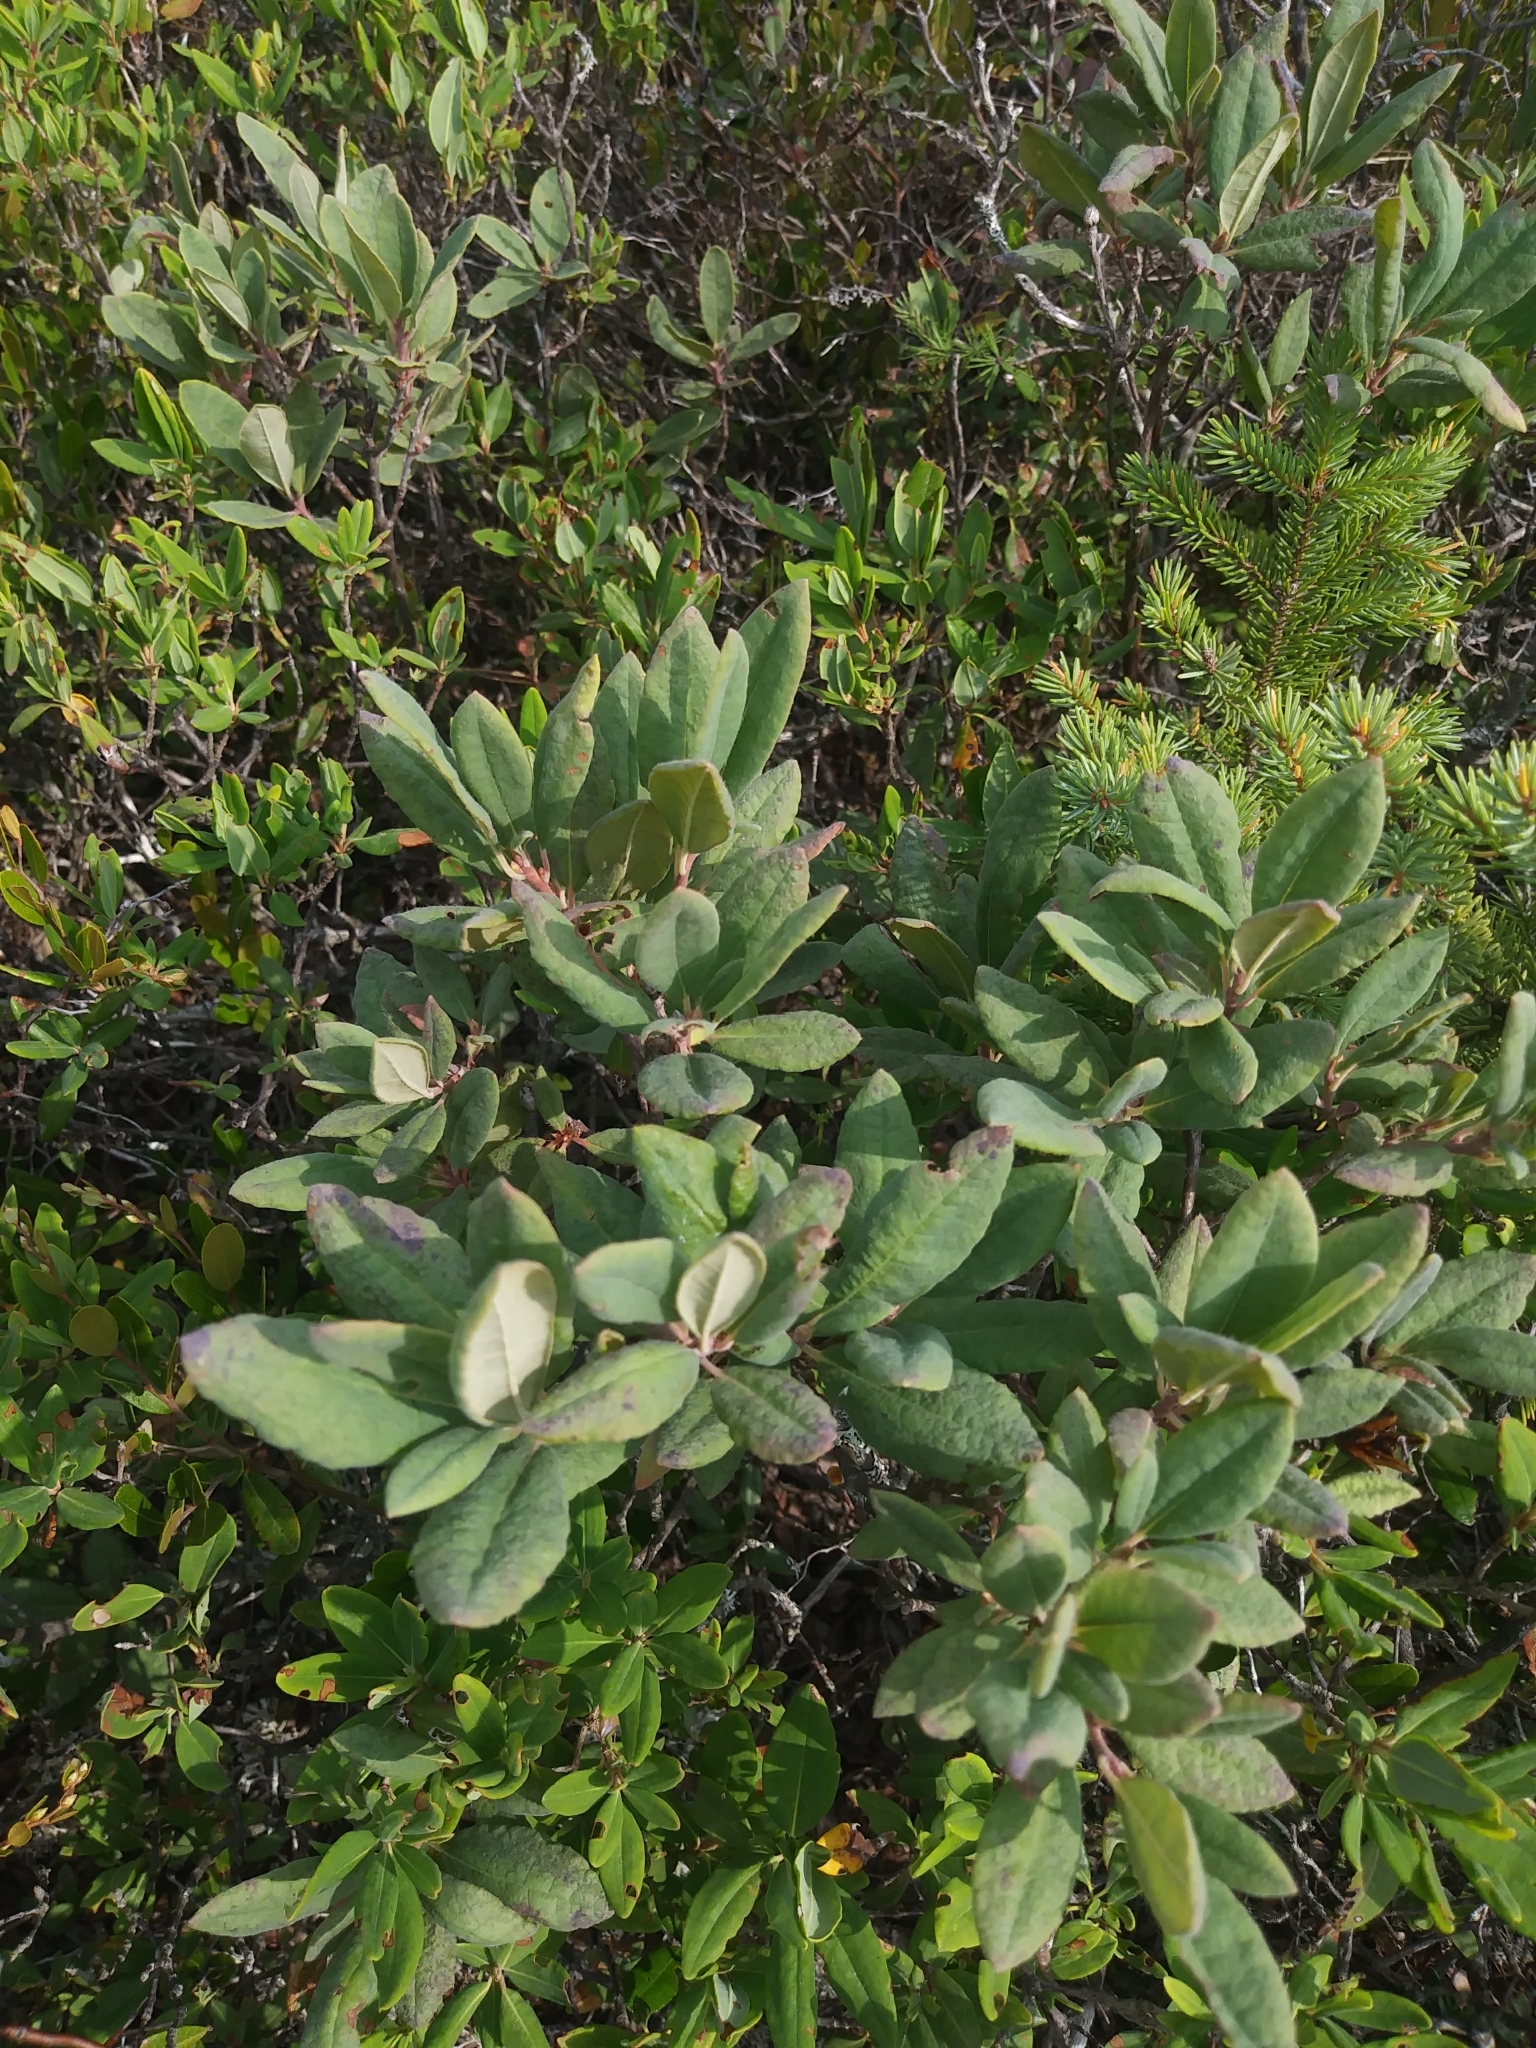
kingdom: Plantae
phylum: Tracheophyta
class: Magnoliopsida
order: Ericales
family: Ericaceae
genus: Rhododendron
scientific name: Rhododendron canadense
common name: Rhodora
